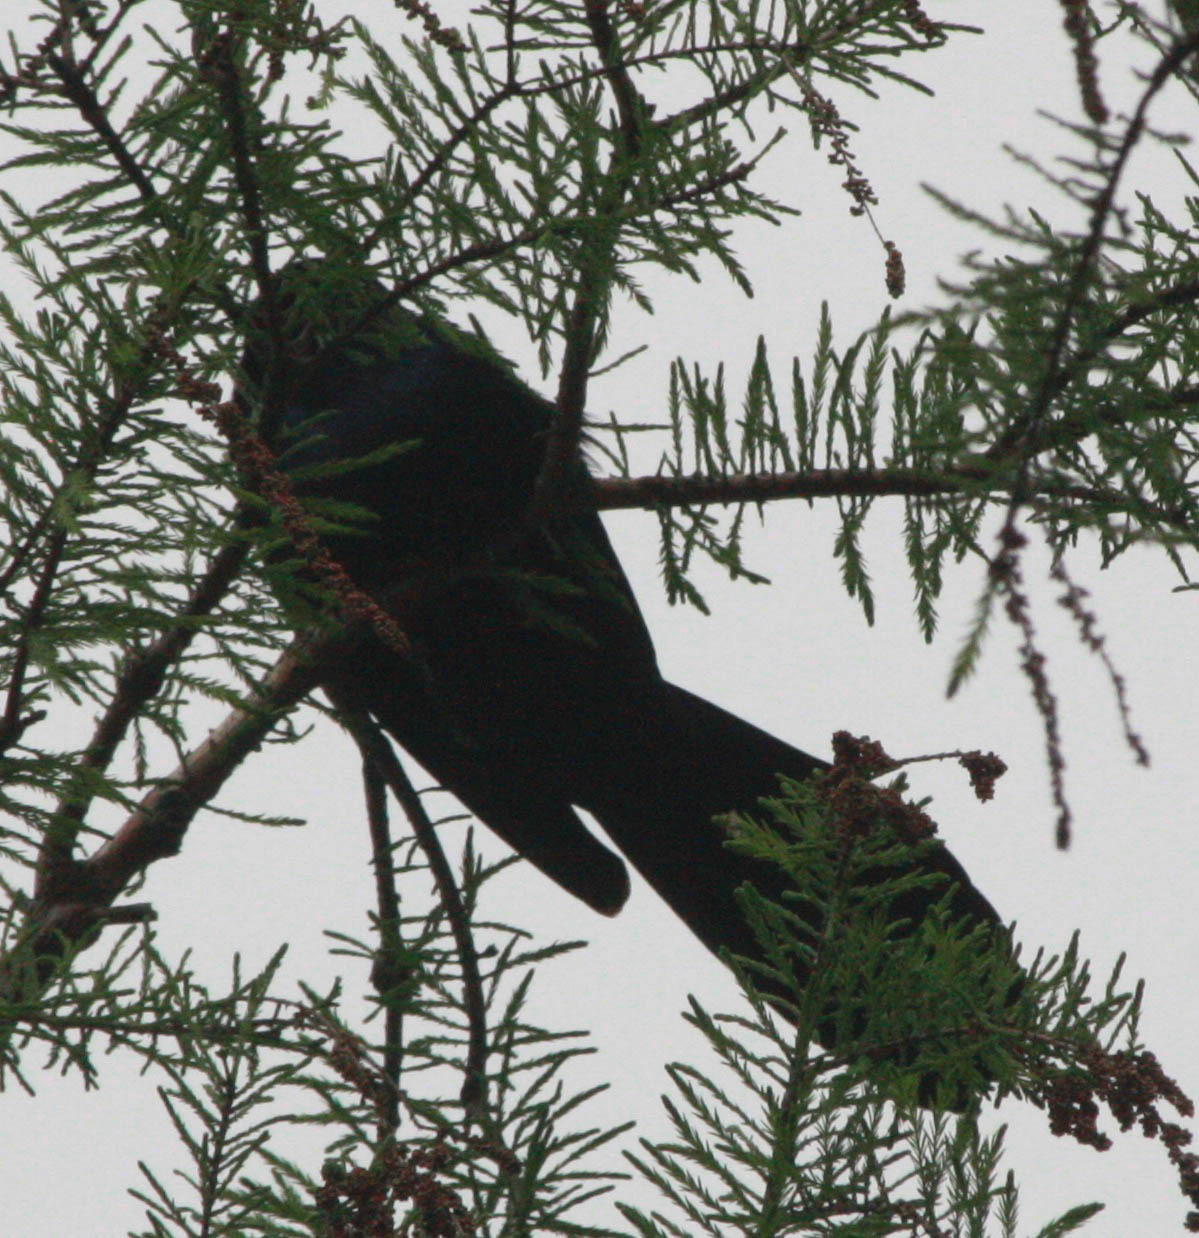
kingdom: Animalia
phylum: Chordata
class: Aves
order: Passeriformes
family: Icteridae
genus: Quiscalus
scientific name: Quiscalus major
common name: Boat-tailed grackle
